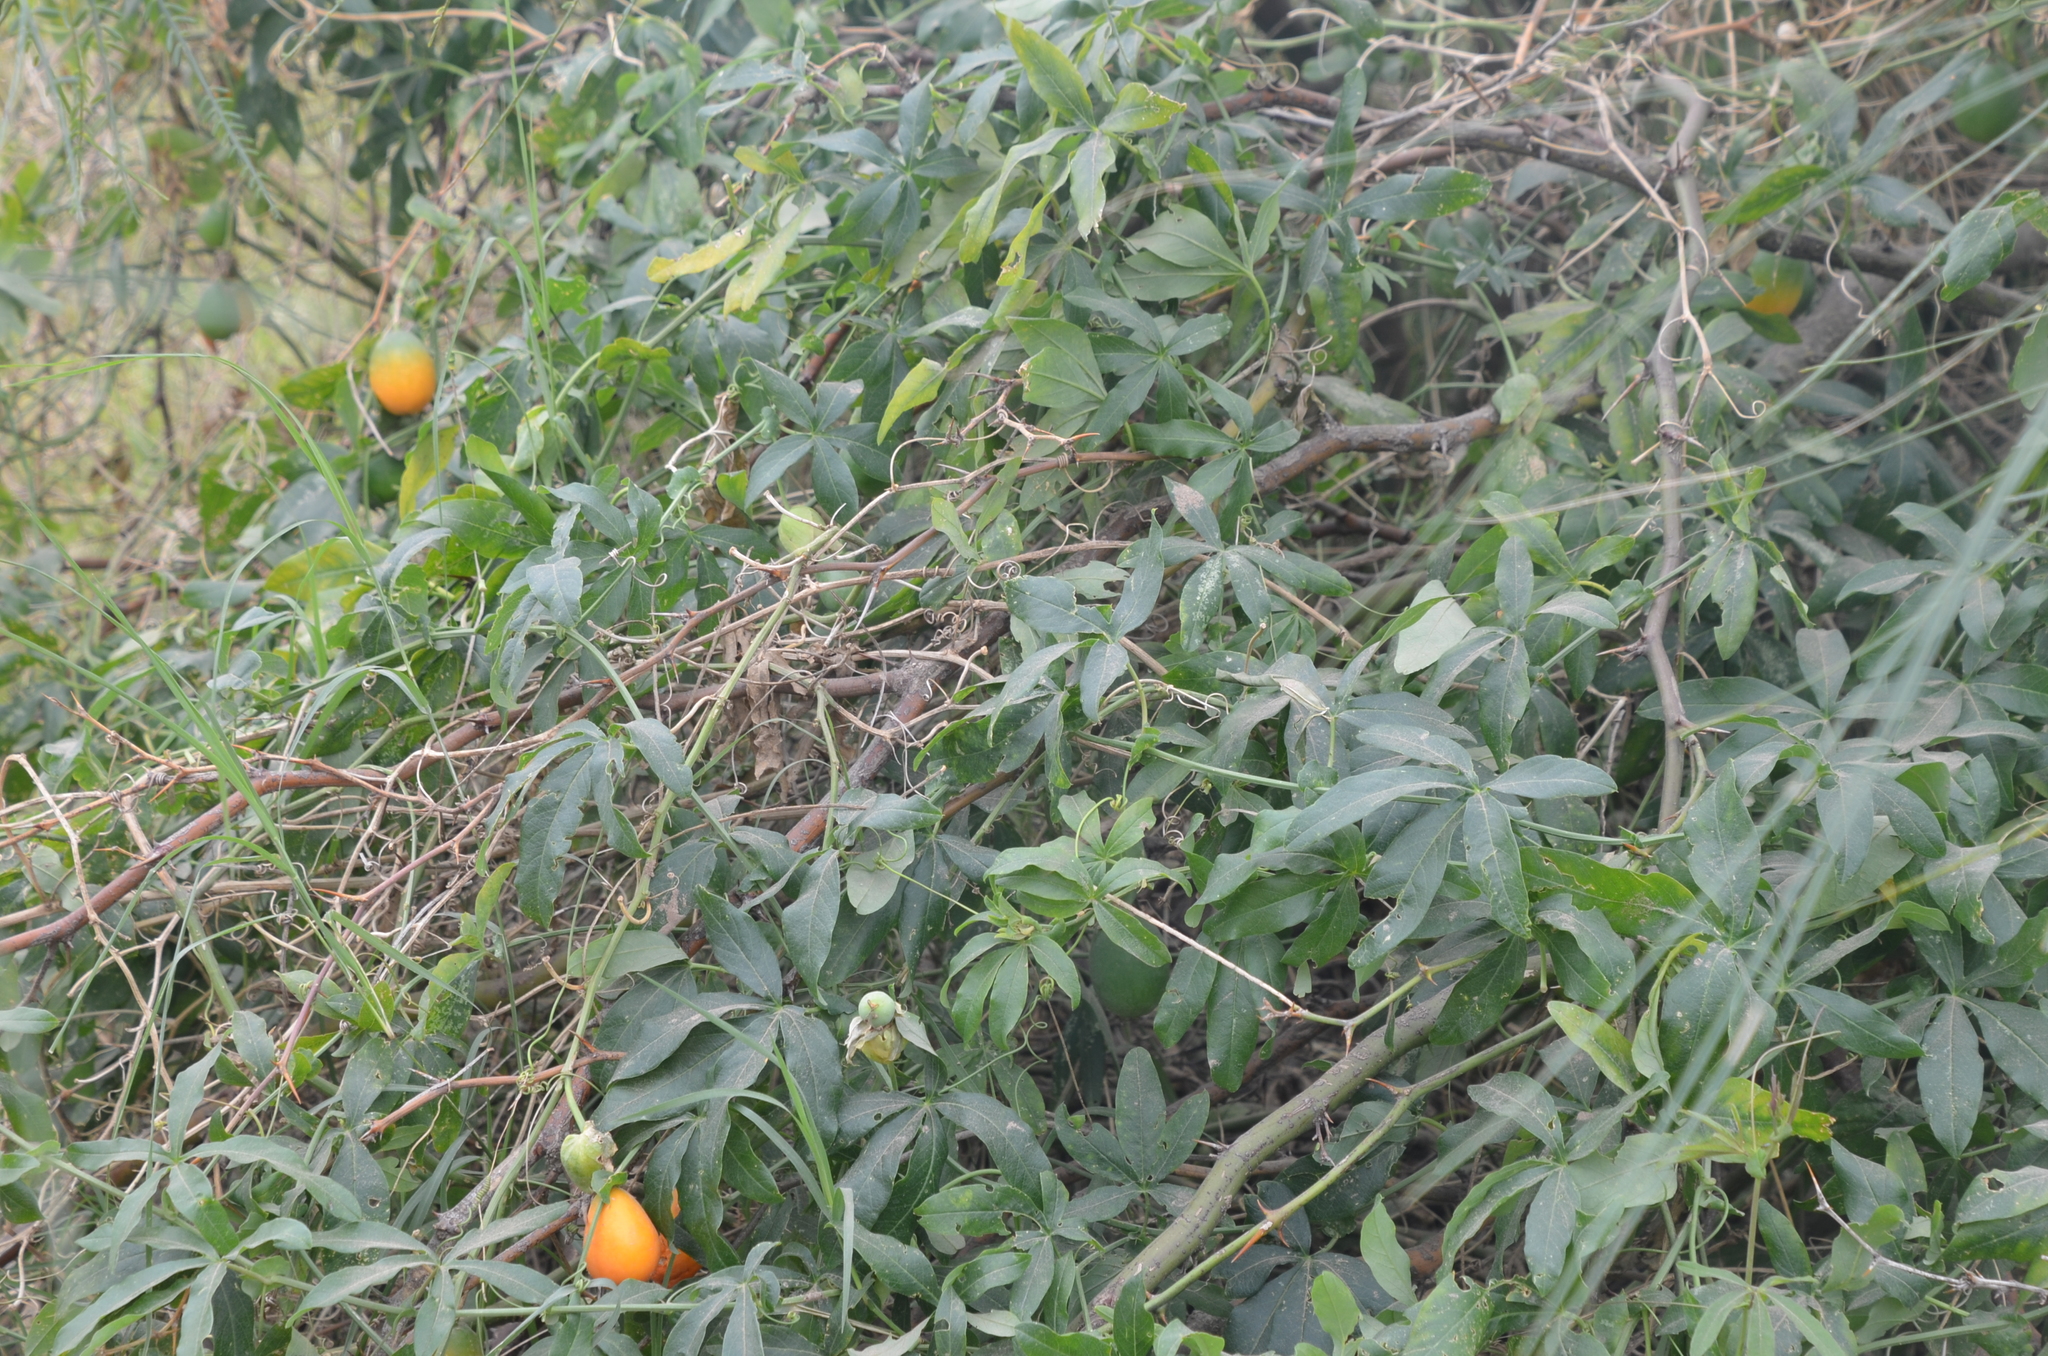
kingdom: Plantae
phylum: Tracheophyta
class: Magnoliopsida
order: Malpighiales
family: Passifloraceae
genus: Passiflora
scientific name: Passiflora caerulea
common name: Blue passionflower
